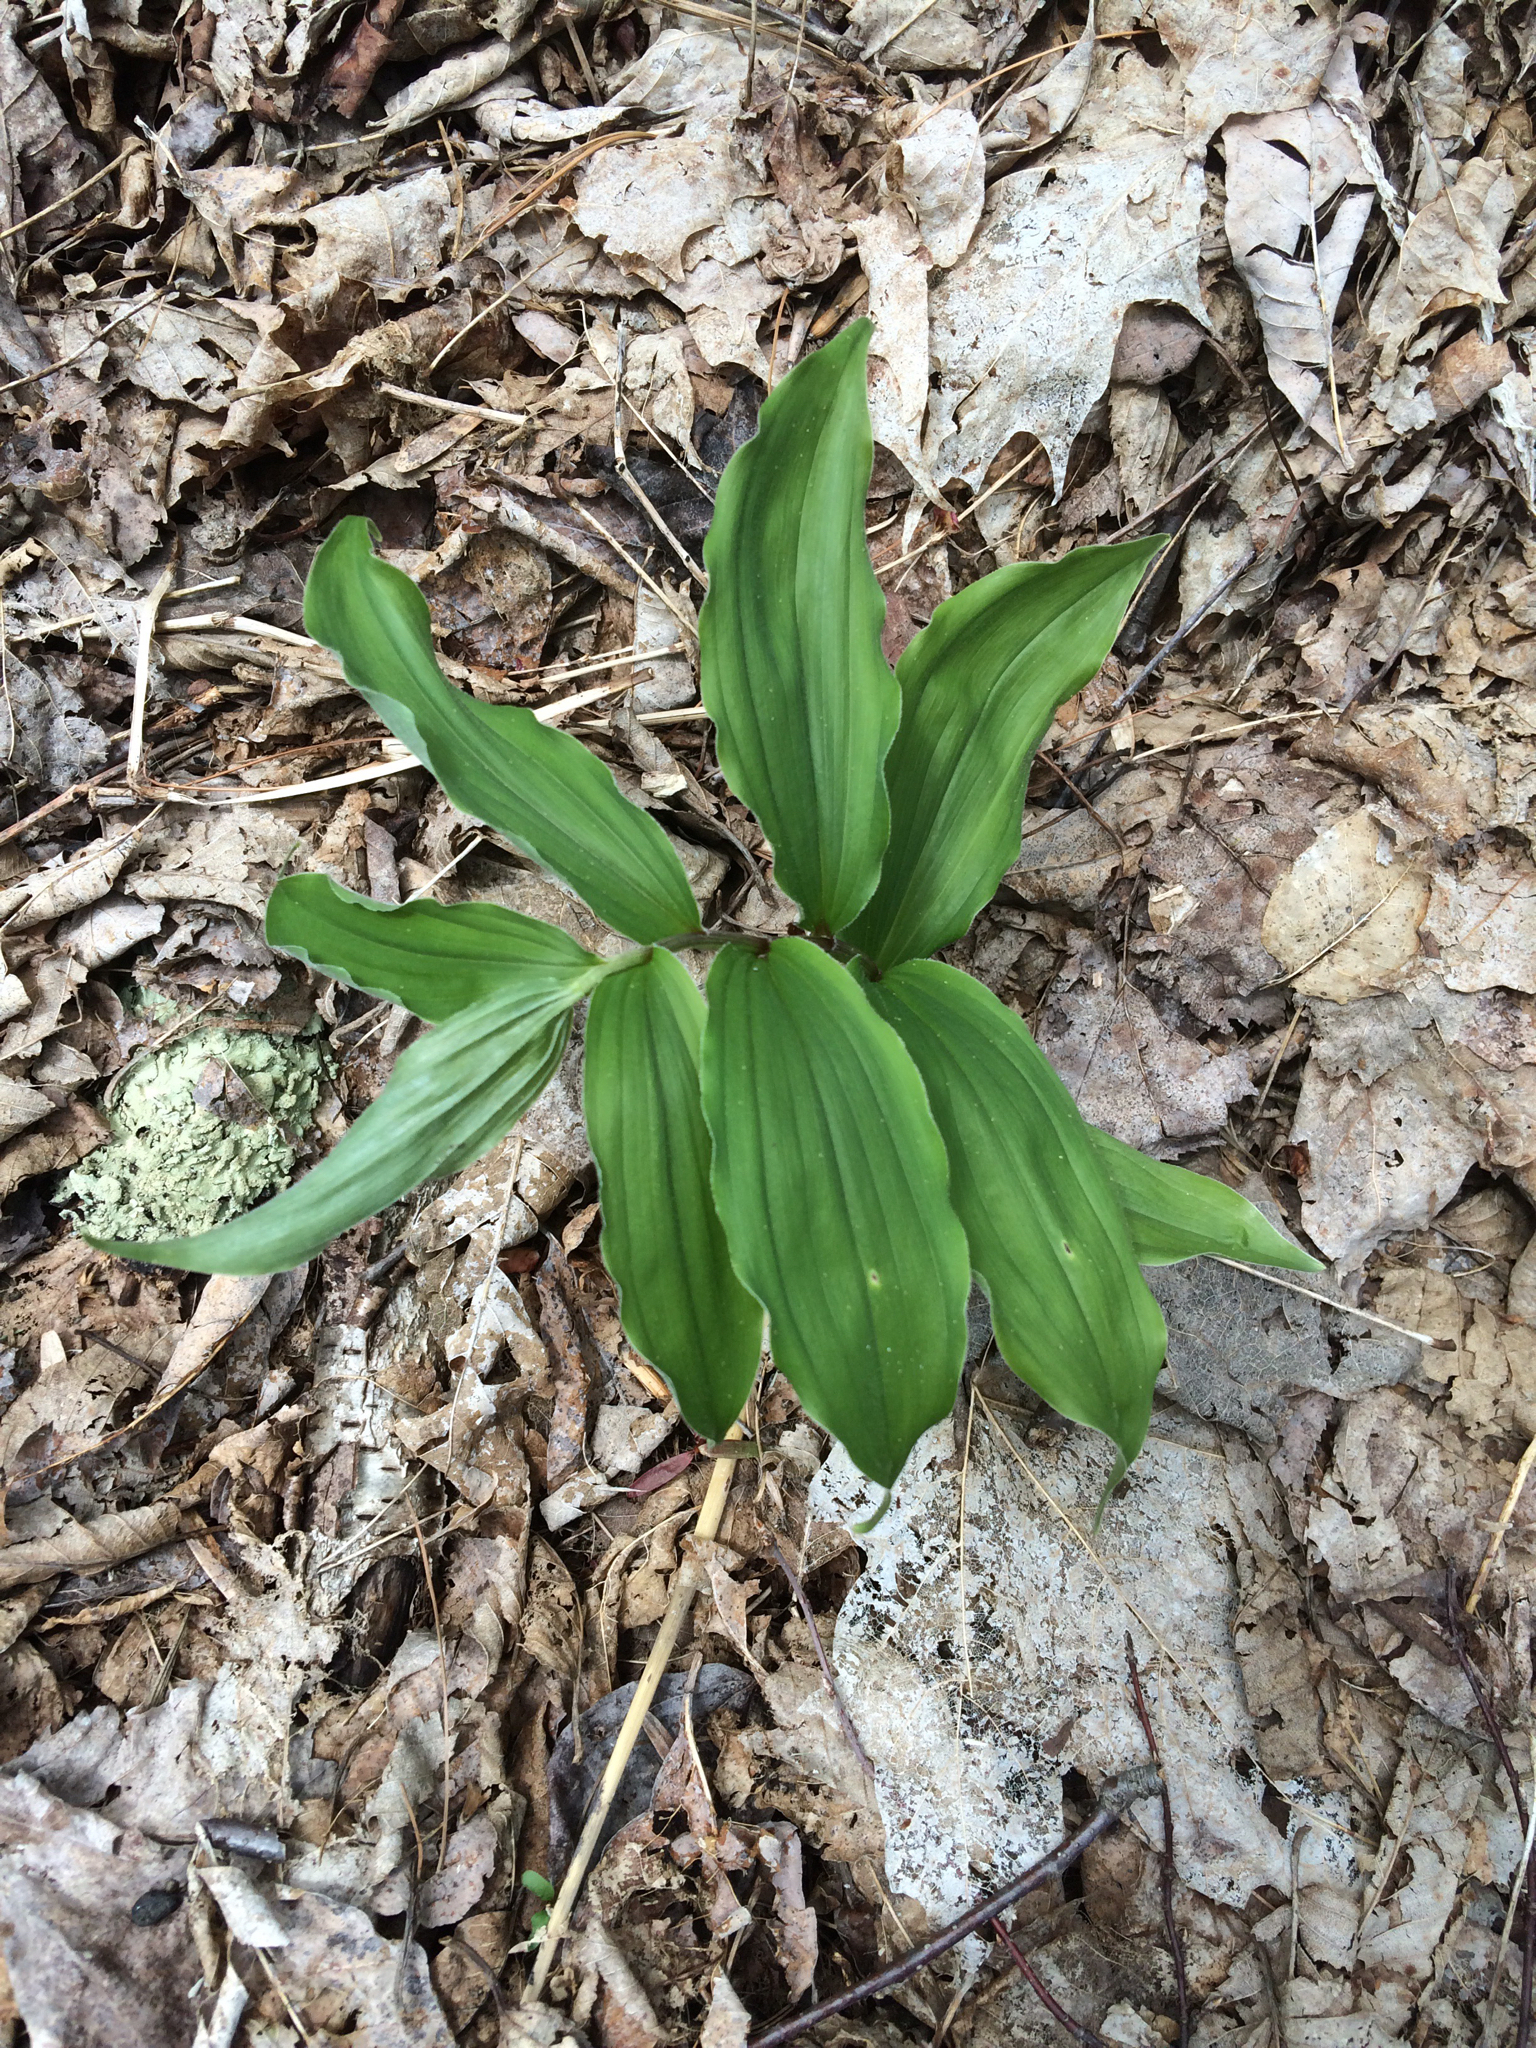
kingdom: Plantae
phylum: Tracheophyta
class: Liliopsida
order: Asparagales
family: Asparagaceae
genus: Maianthemum
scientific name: Maianthemum racemosum
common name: False spikenard
